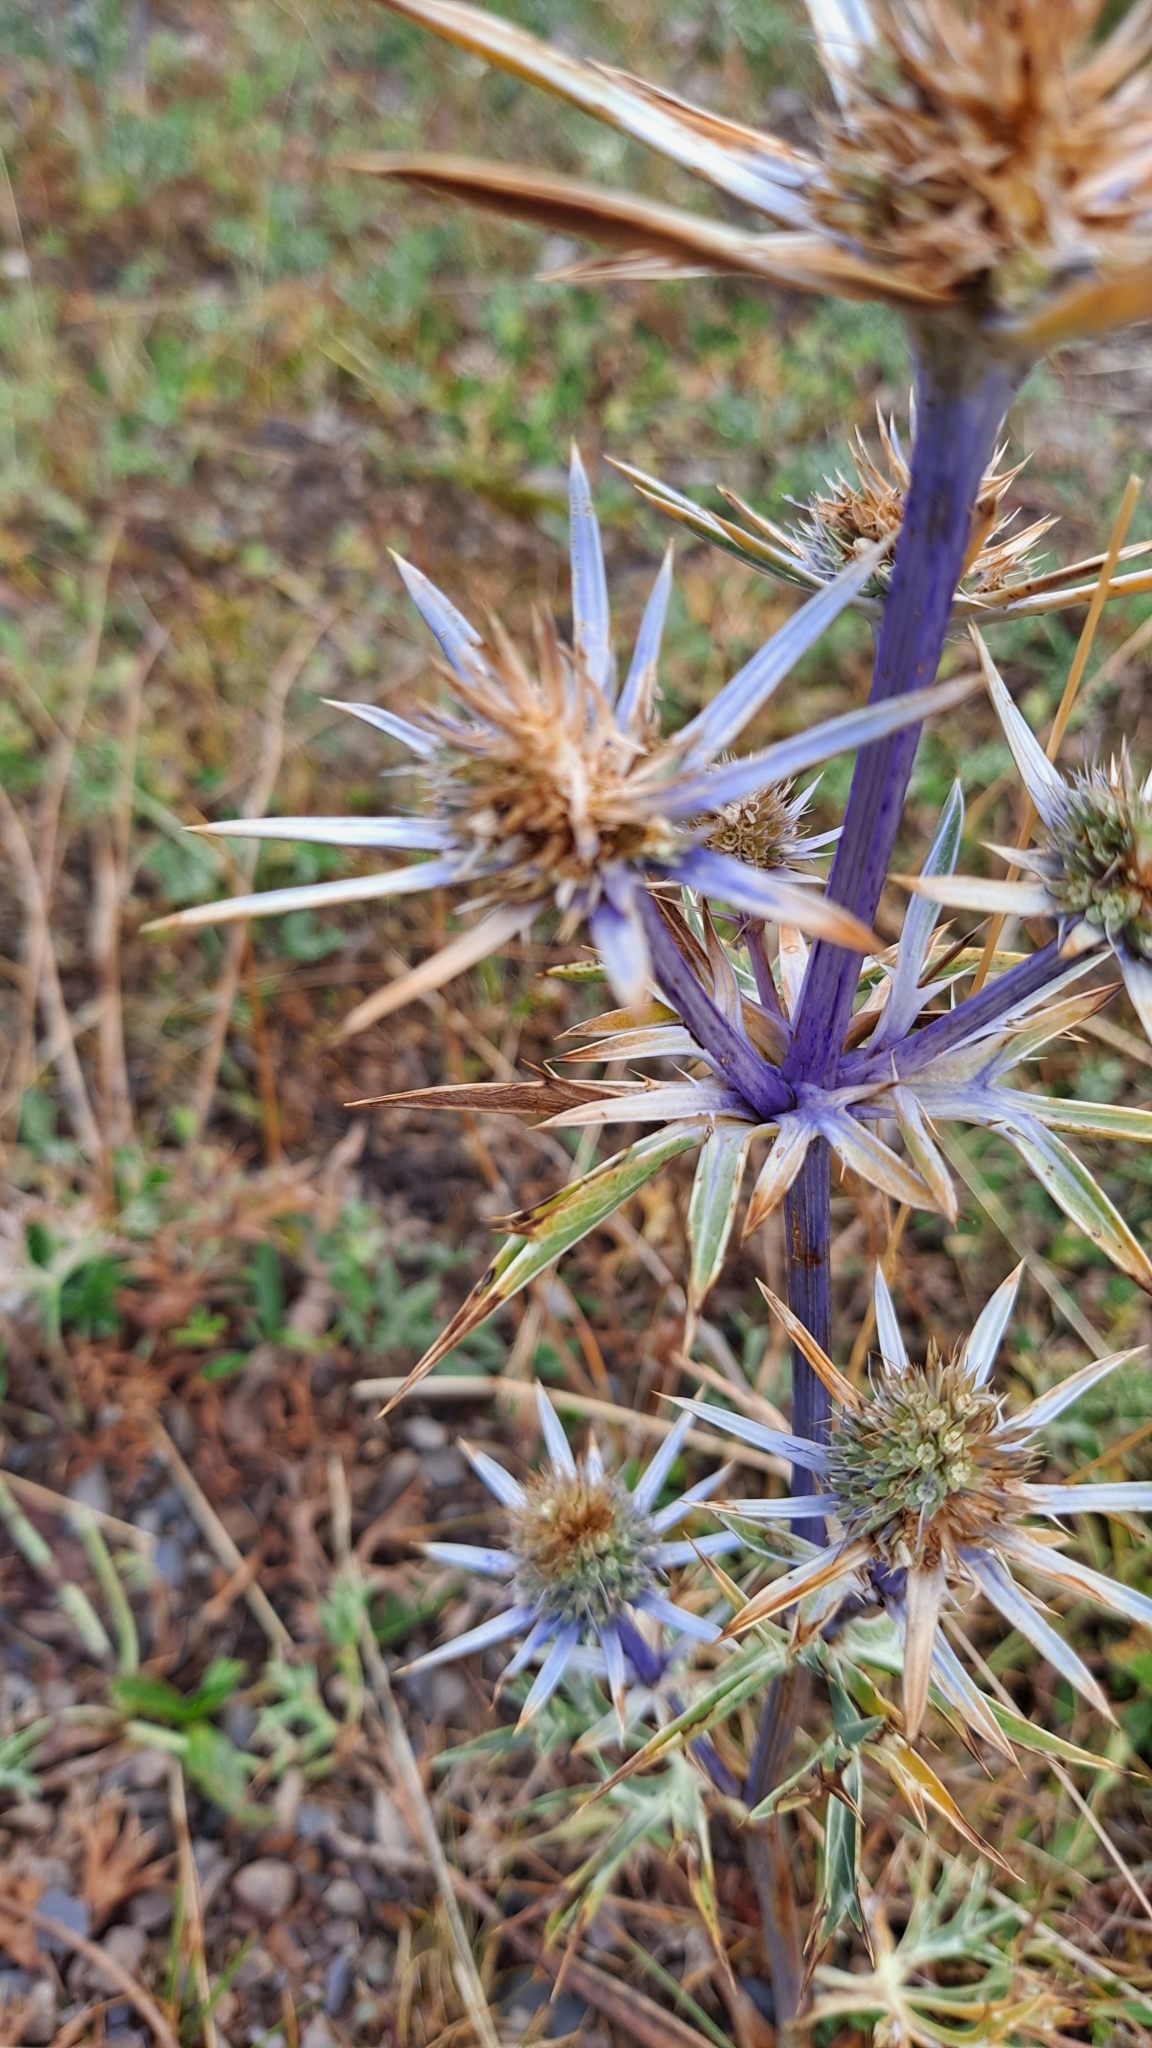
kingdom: Plantae
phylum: Tracheophyta
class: Magnoliopsida
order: Apiales
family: Apiaceae
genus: Eryngium
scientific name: Eryngium bourgatii
